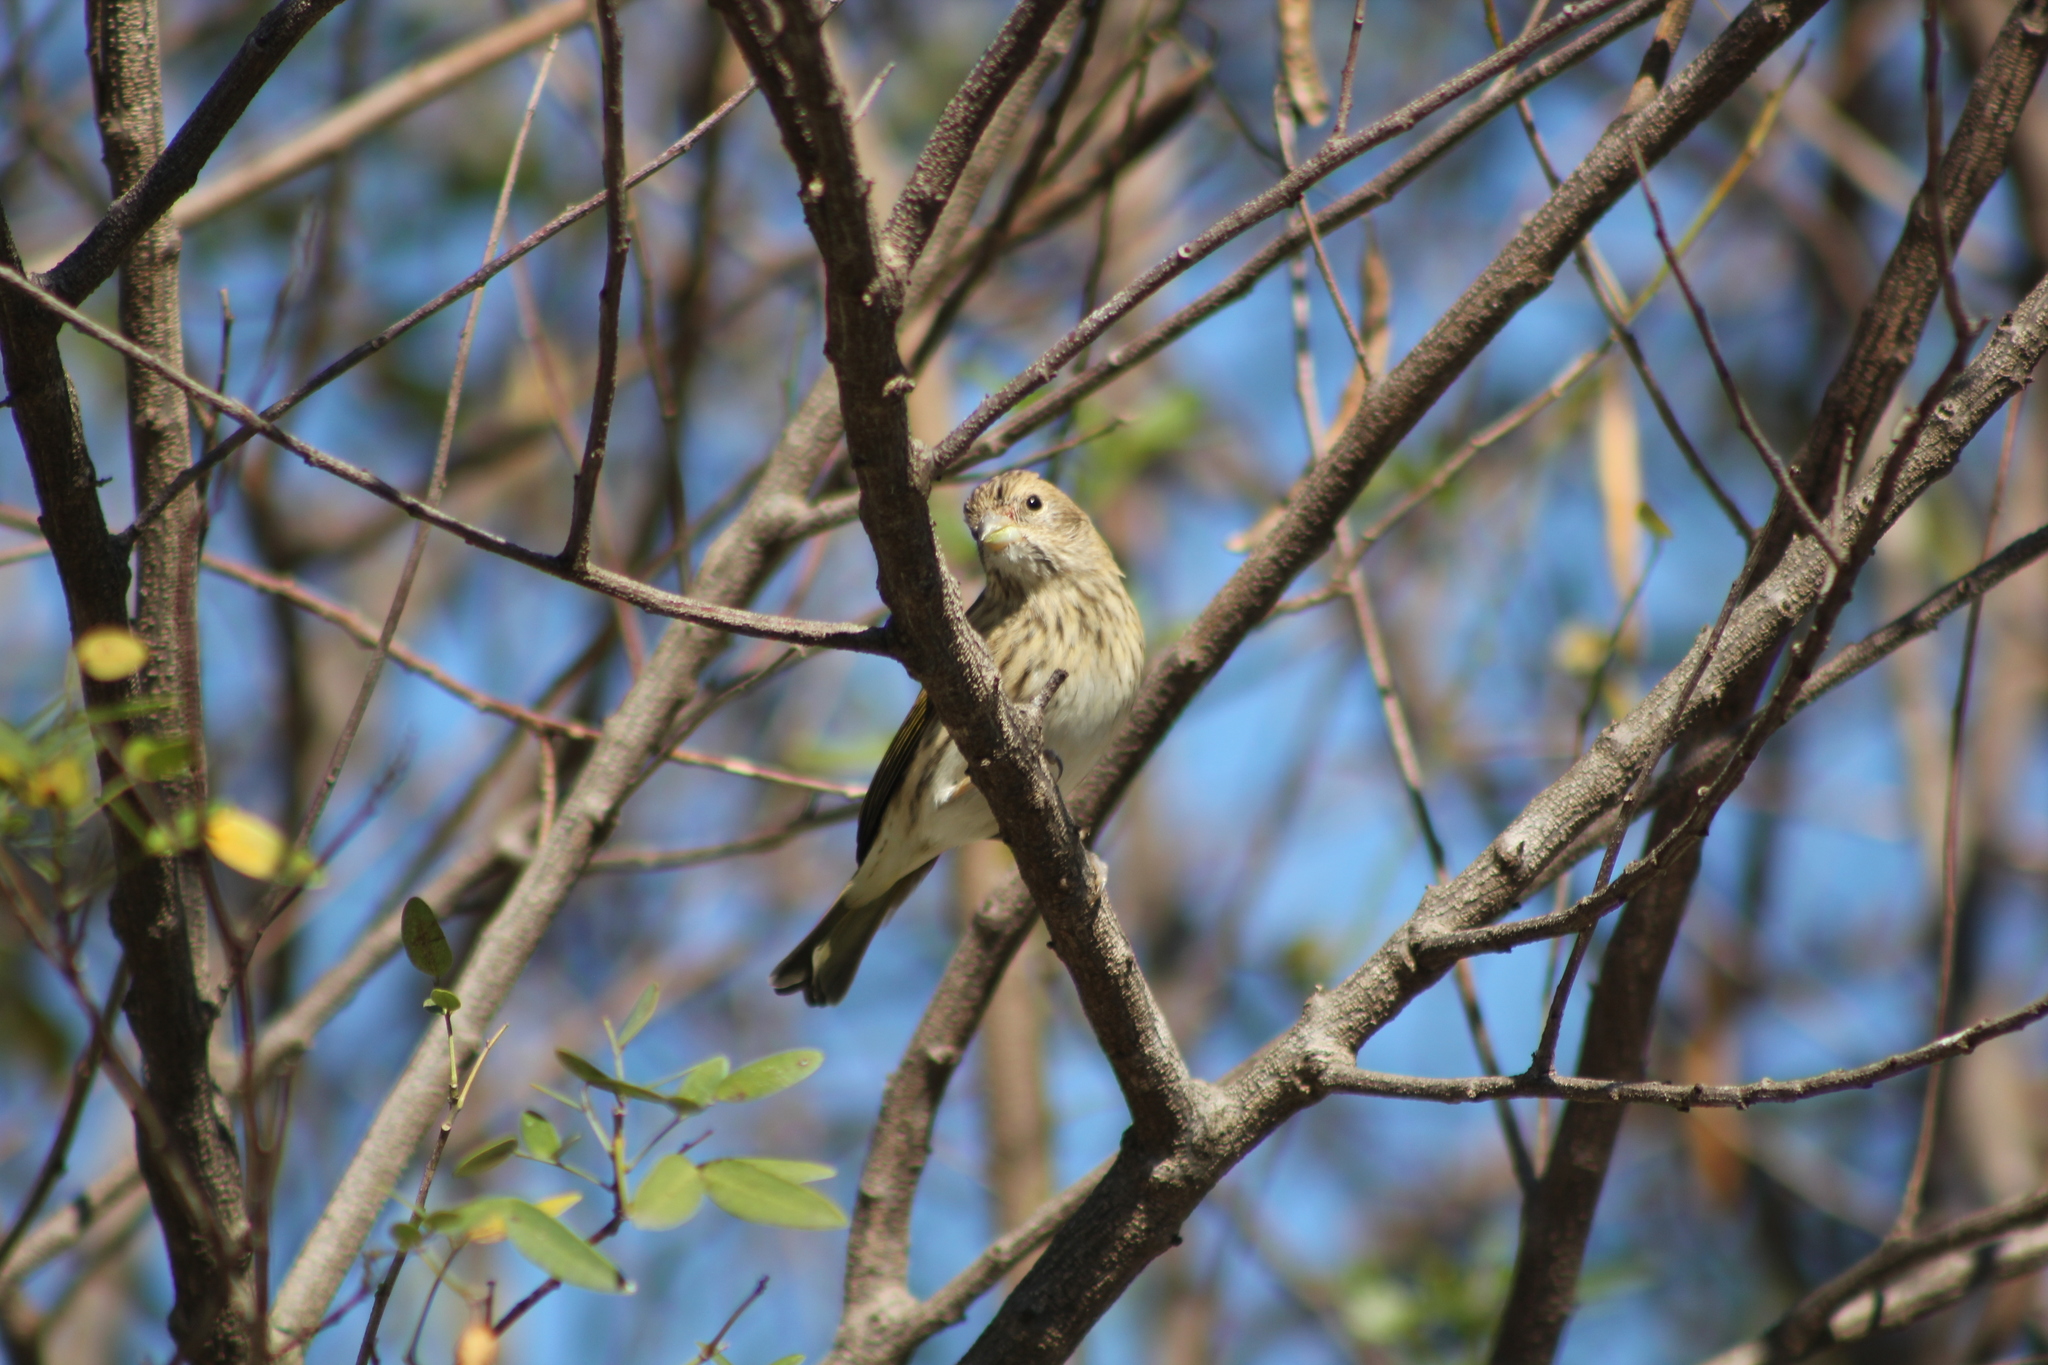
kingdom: Animalia
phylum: Chordata
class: Aves
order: Passeriformes
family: Thraupidae
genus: Sicalis
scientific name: Sicalis flaveola
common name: Saffron finch
